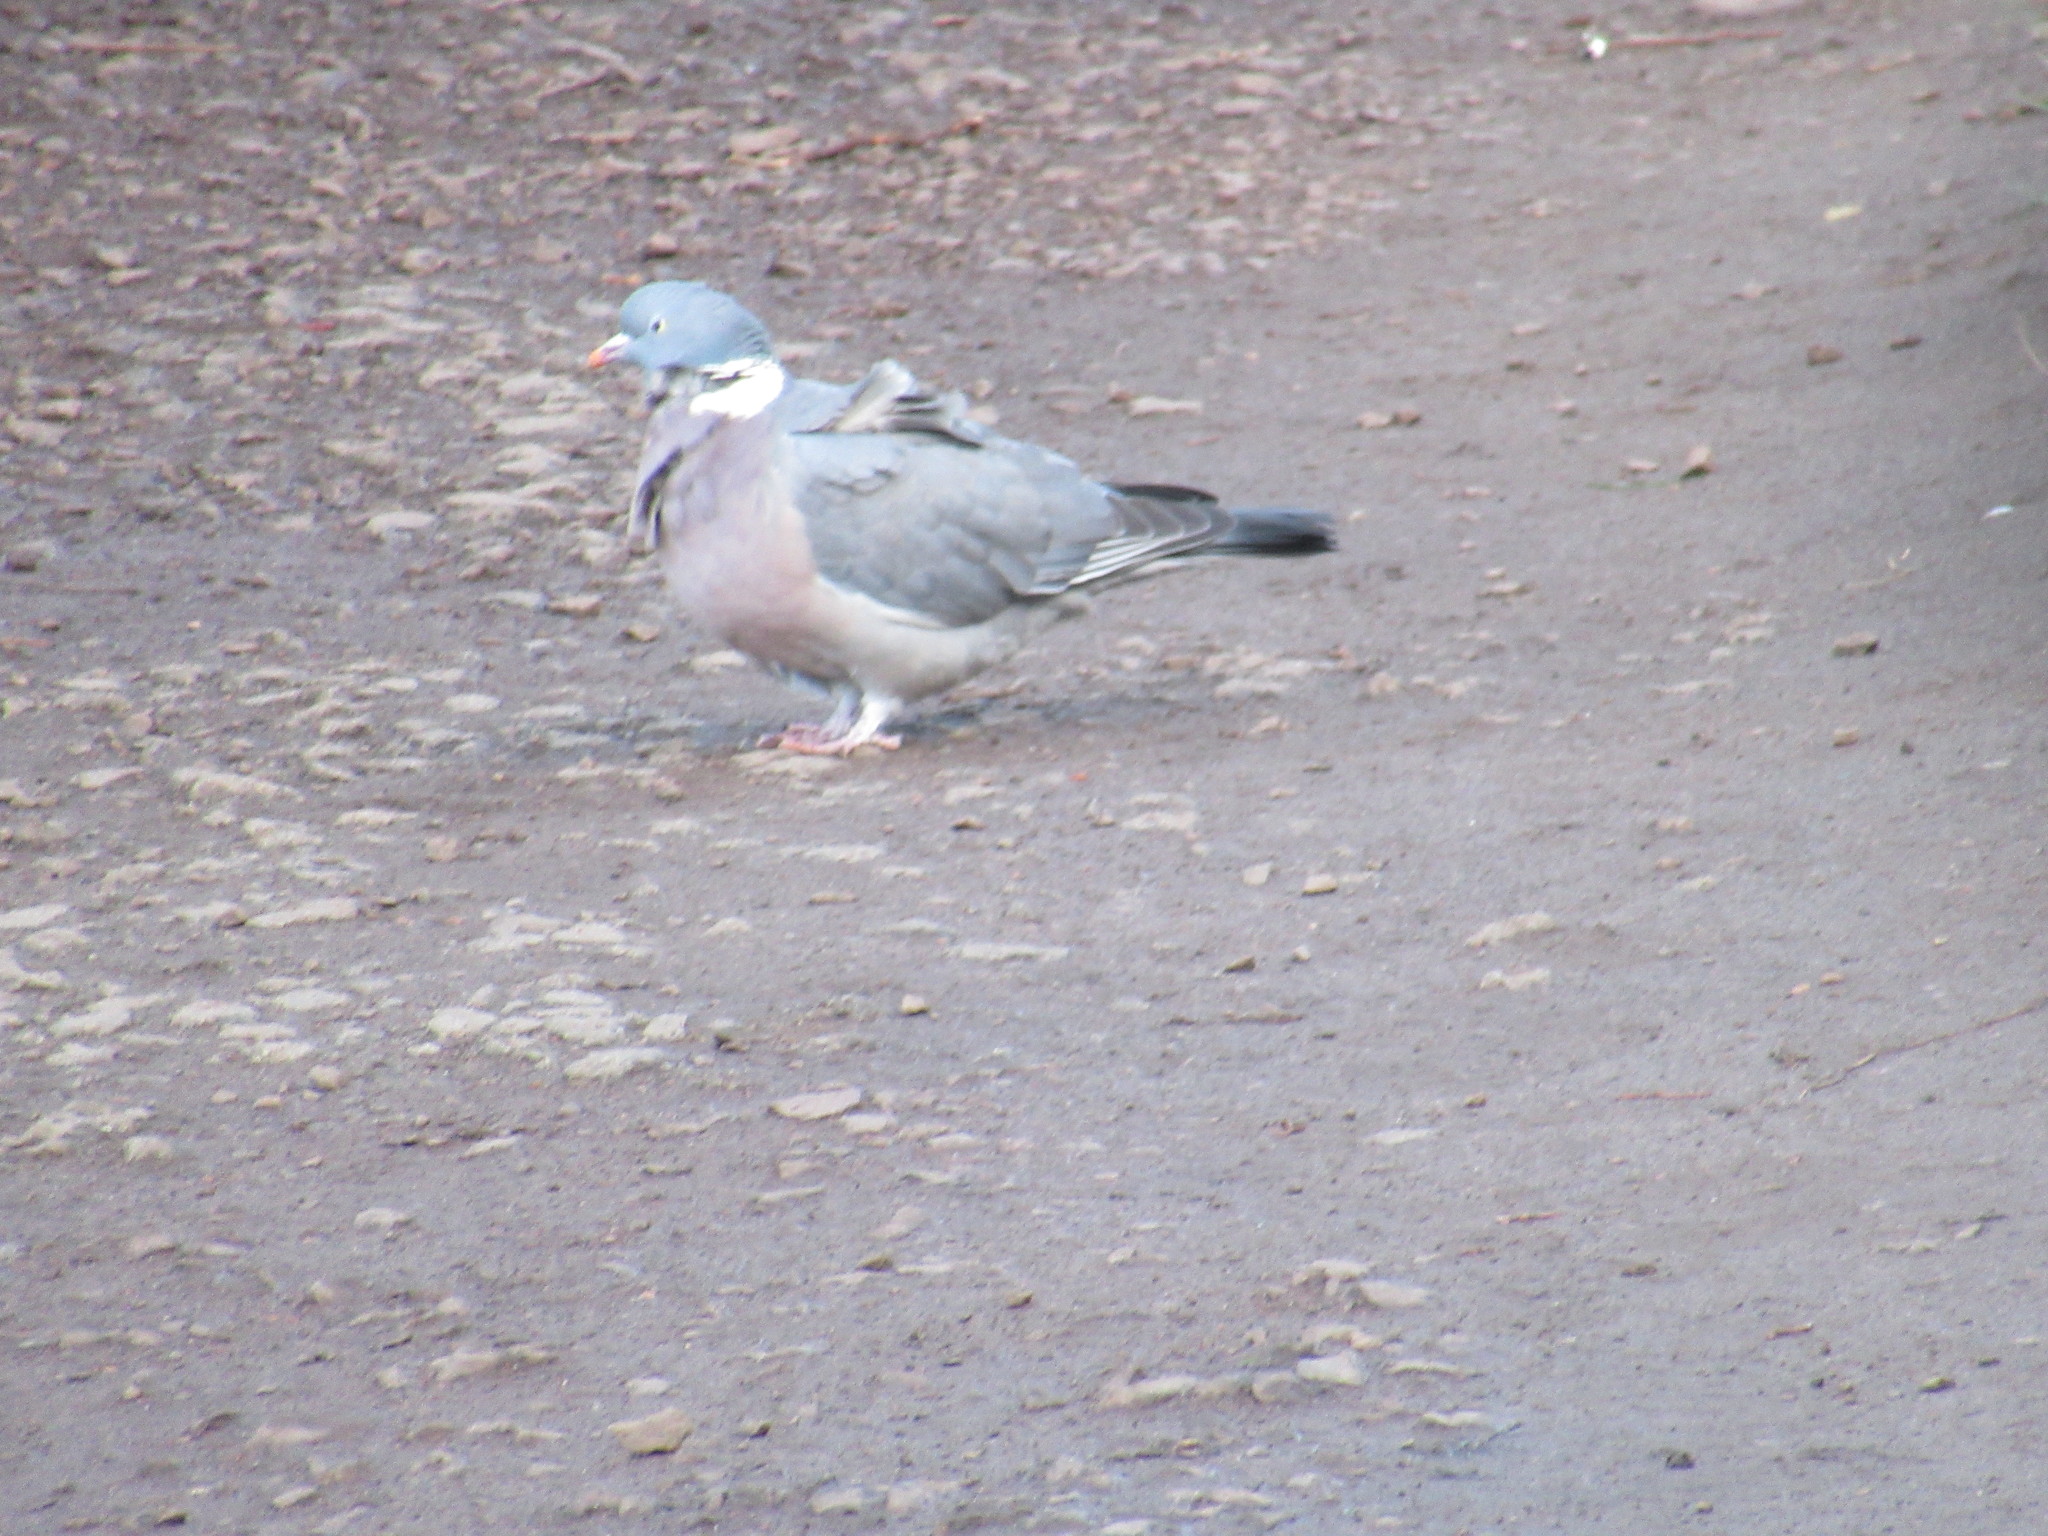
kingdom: Animalia
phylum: Chordata
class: Aves
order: Columbiformes
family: Columbidae
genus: Columba
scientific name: Columba palumbus
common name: Common wood pigeon
